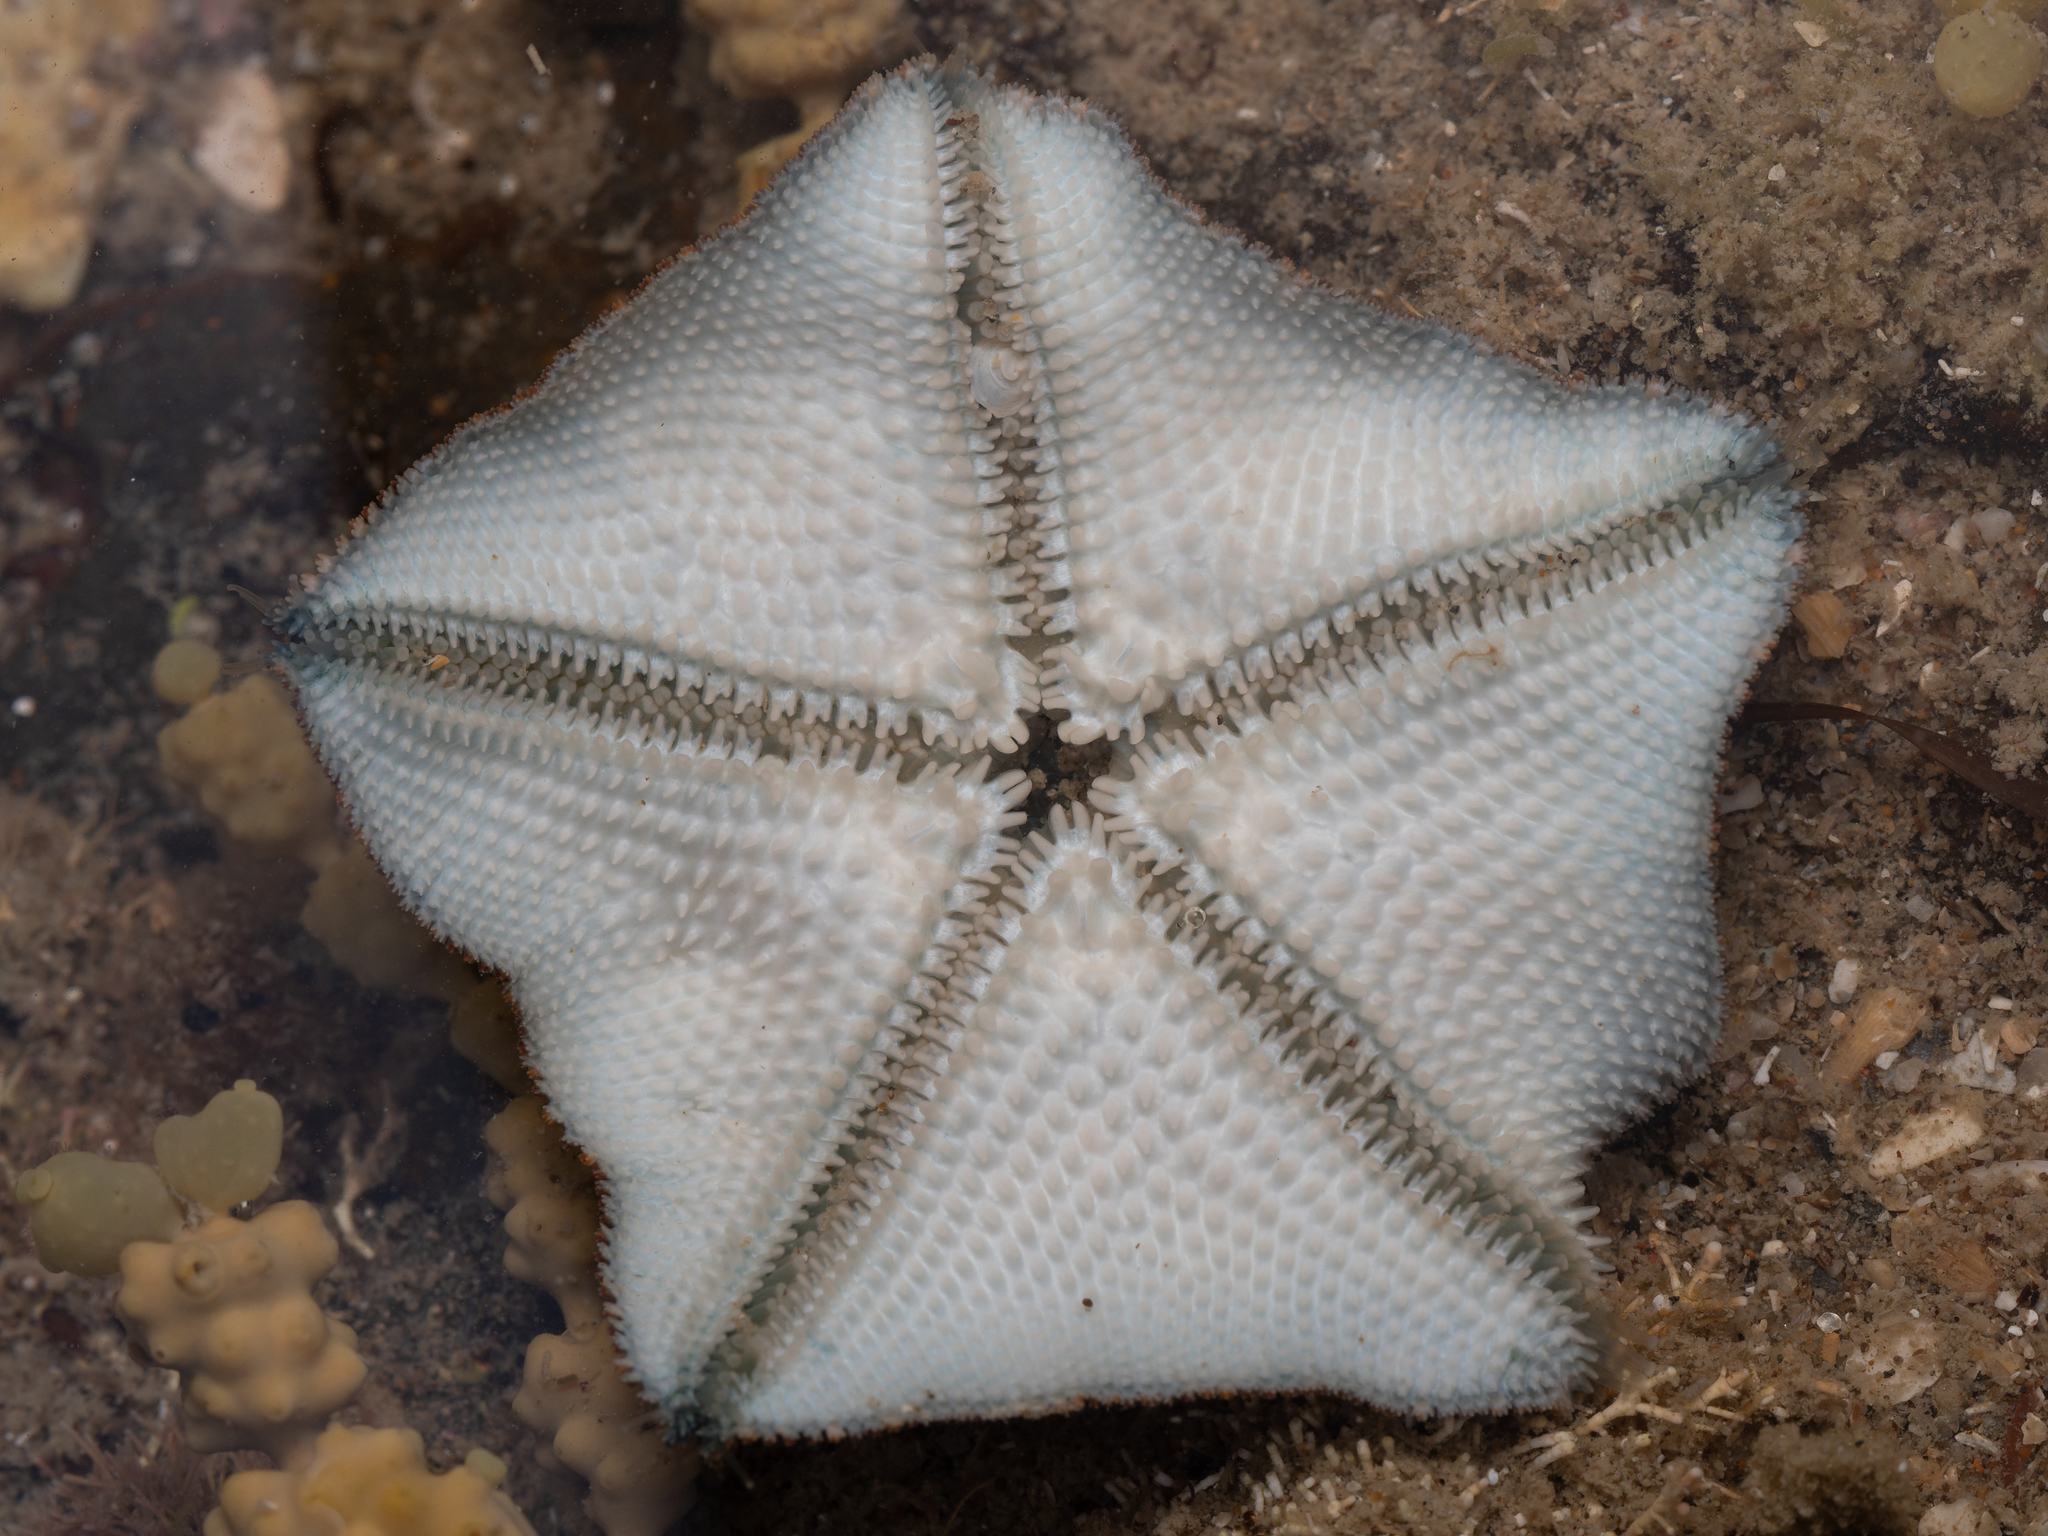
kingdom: Animalia
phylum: Echinodermata
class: Asteroidea
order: Valvatida
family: Asterinidae
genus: Patiriella
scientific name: Patiriella regularis
